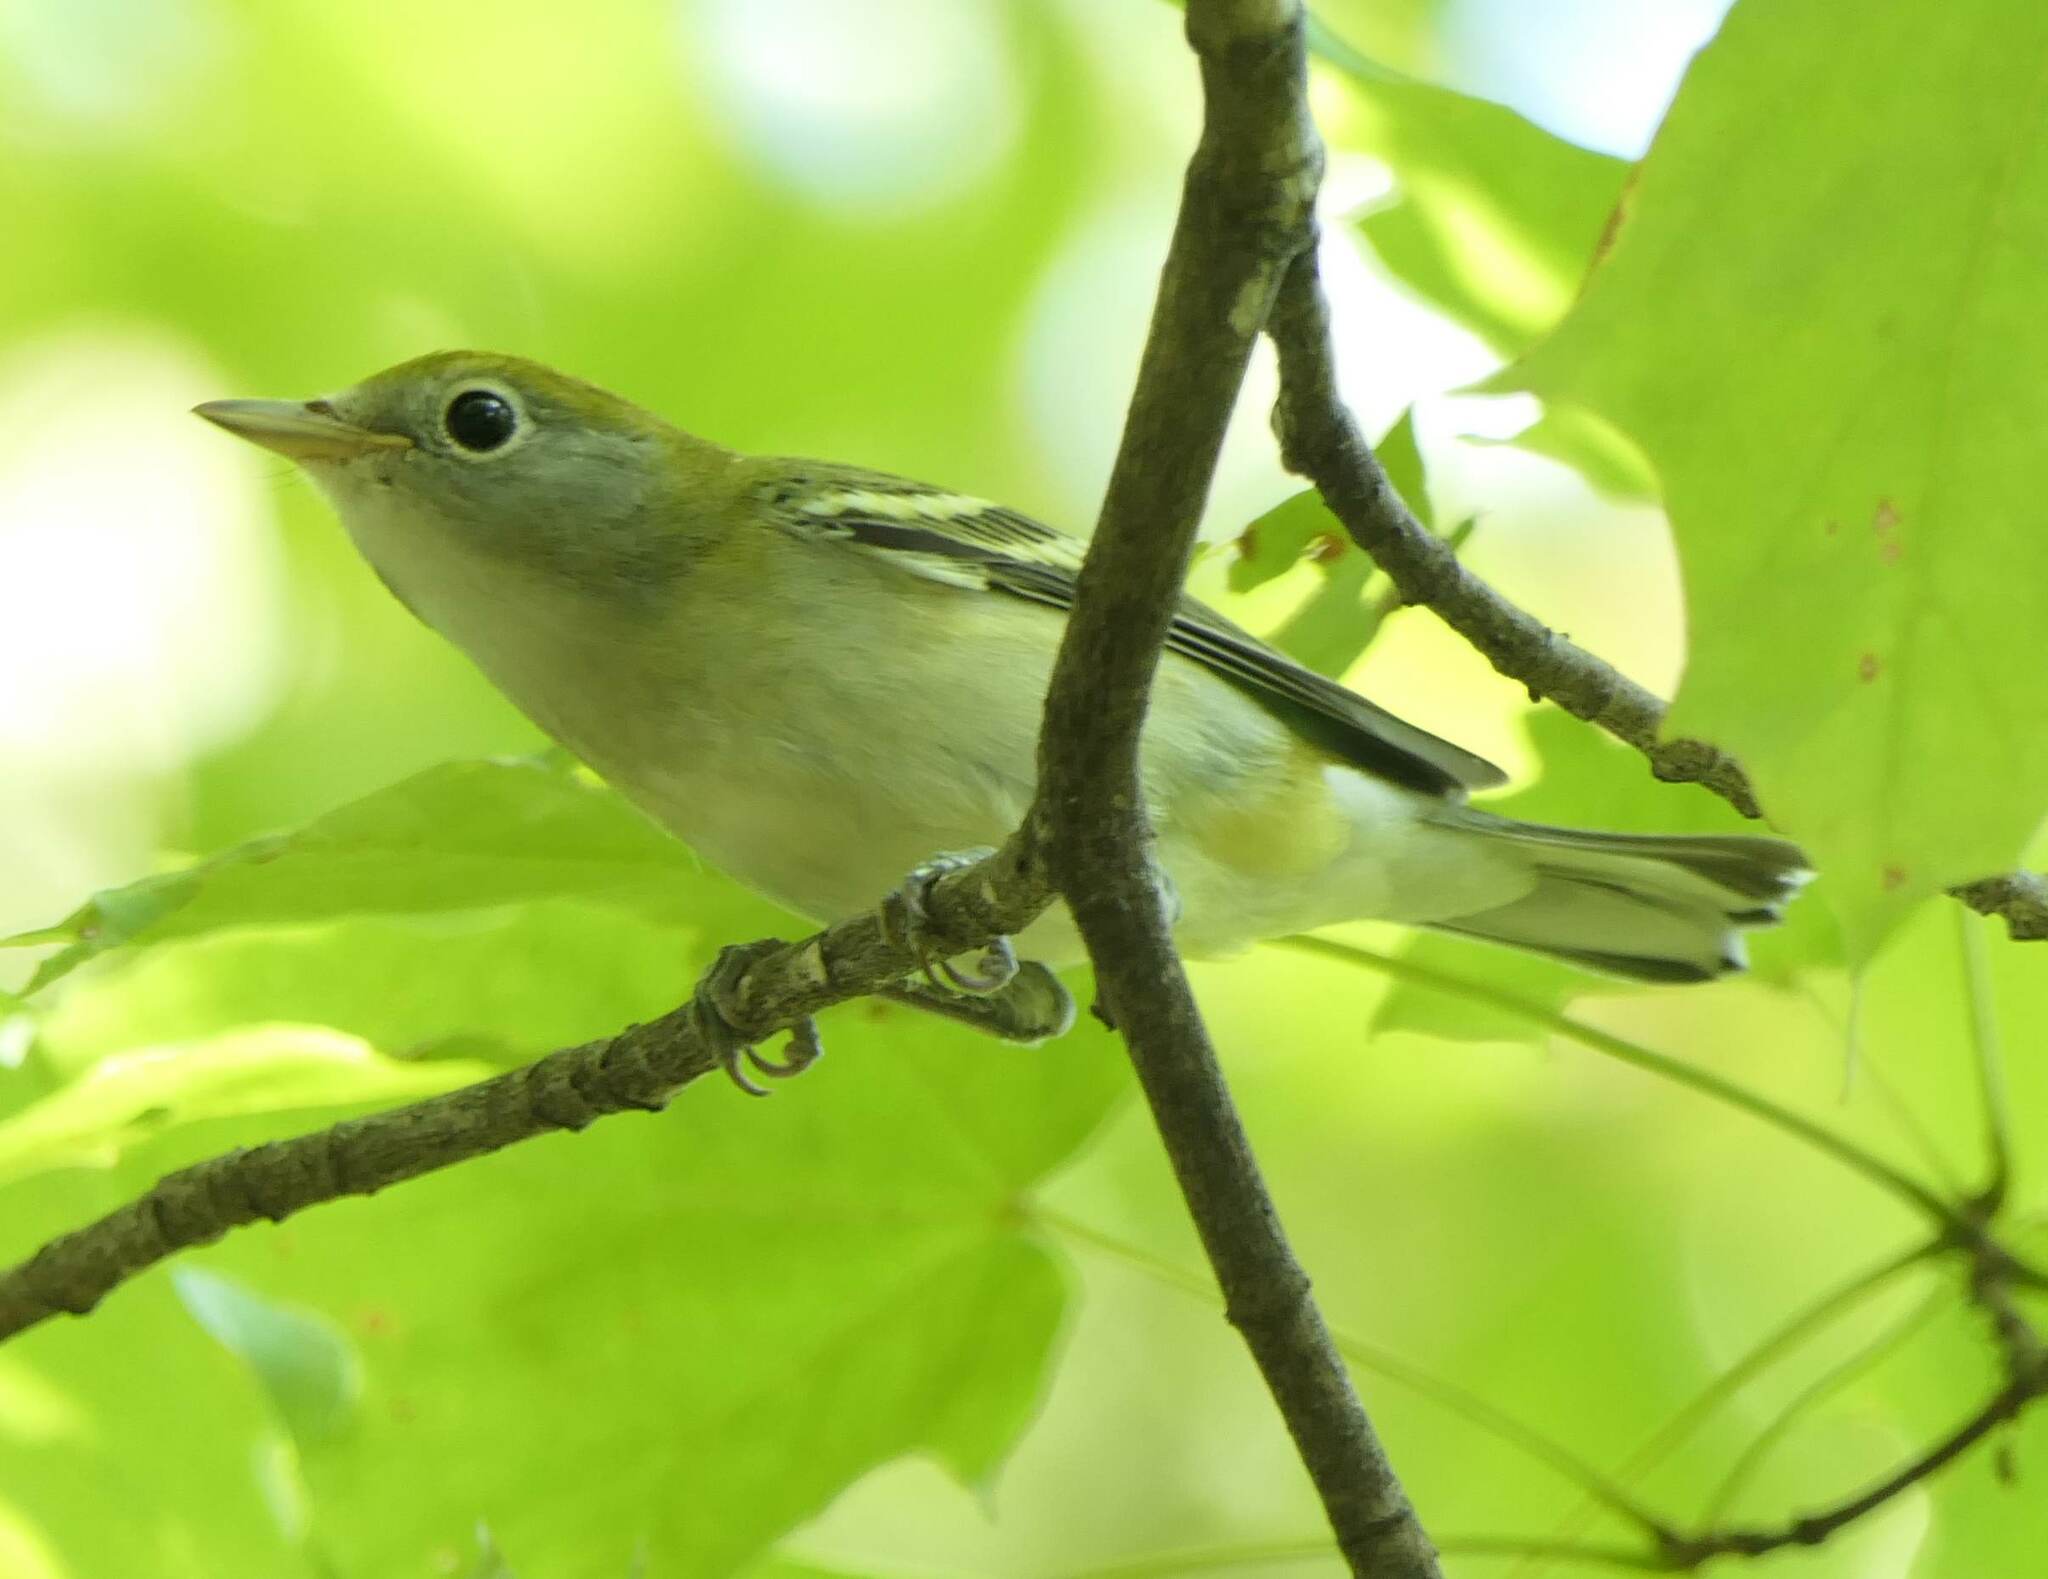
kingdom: Animalia
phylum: Chordata
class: Aves
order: Passeriformes
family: Parulidae
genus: Setophaga
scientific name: Setophaga pensylvanica
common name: Chestnut-sided warbler
